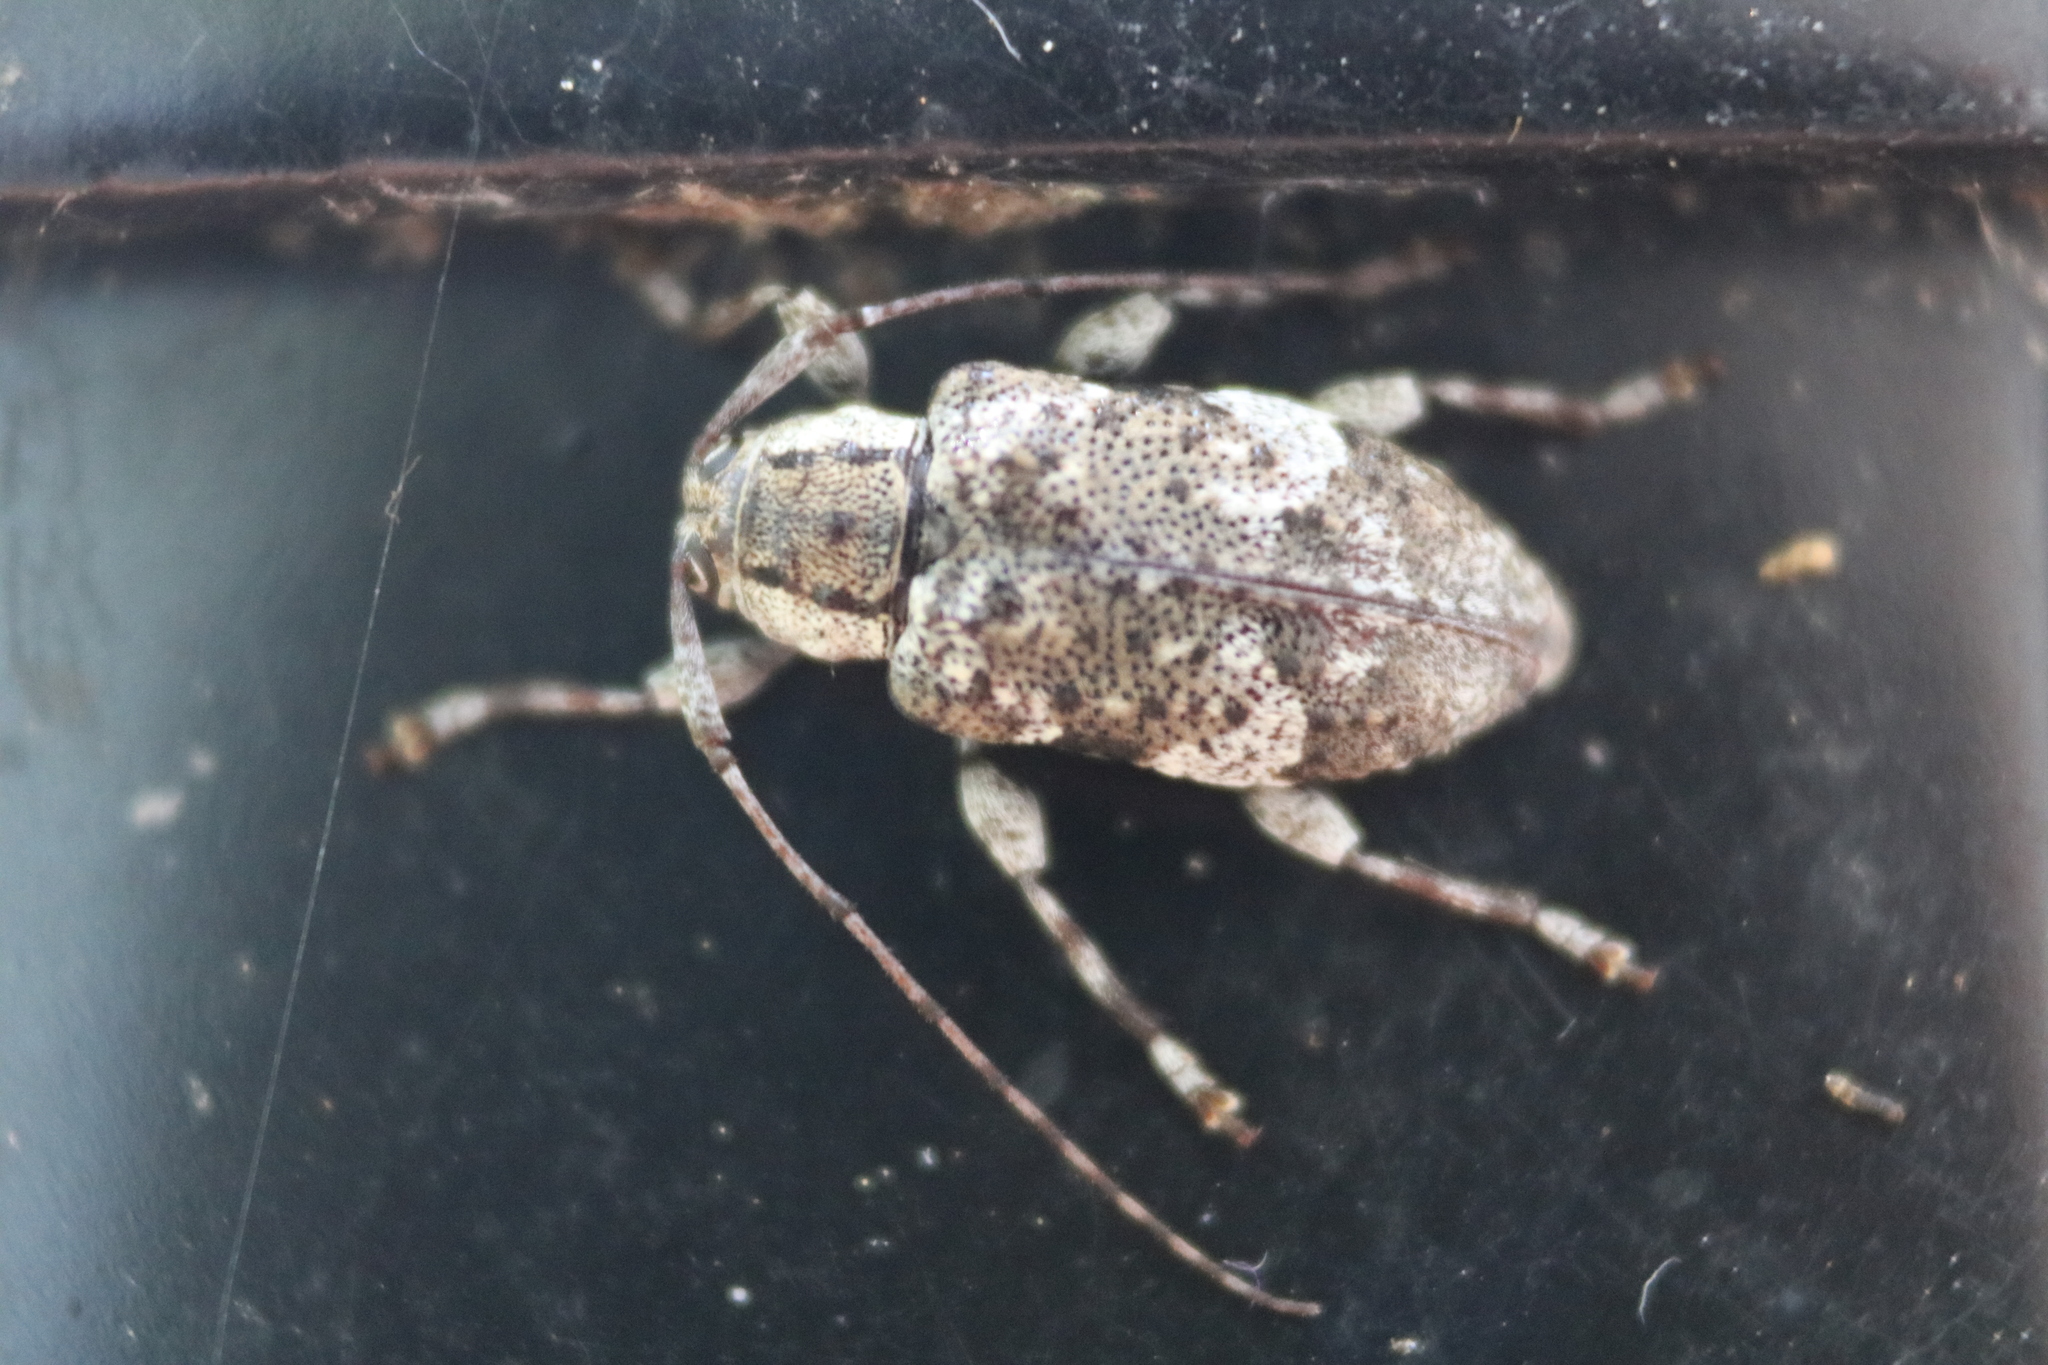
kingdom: Animalia
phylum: Arthropoda
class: Insecta
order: Coleoptera
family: Cerambycidae
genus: Astylopsis
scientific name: Astylopsis macula
